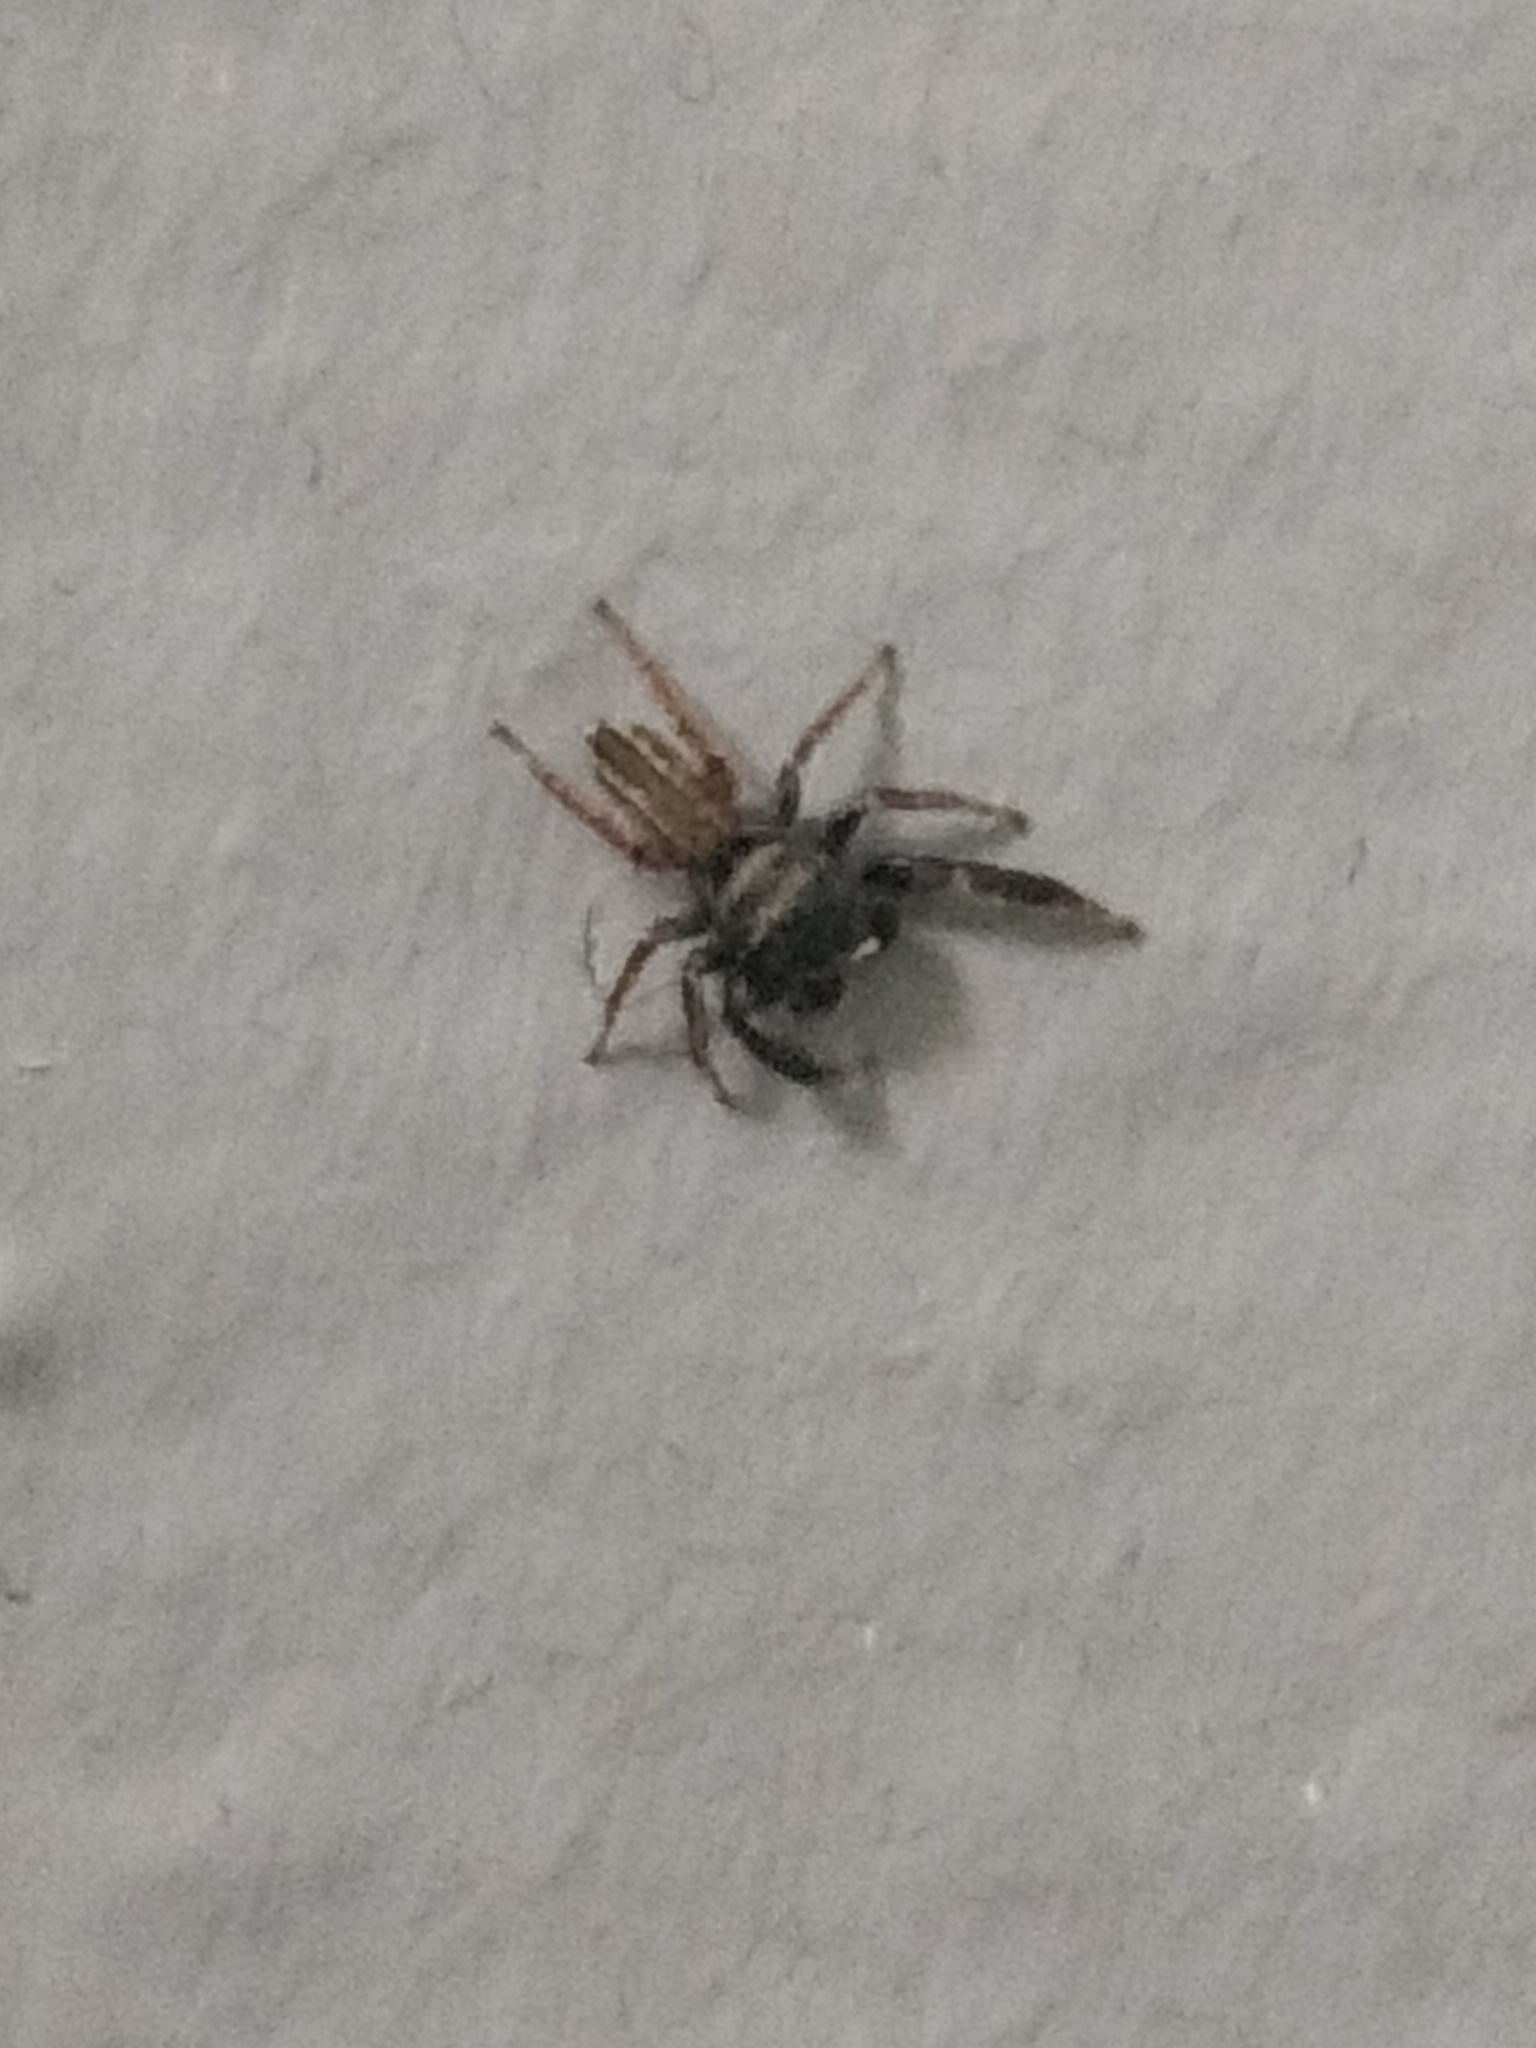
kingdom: Animalia
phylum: Arthropoda
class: Arachnida
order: Araneae
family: Salticidae
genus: Metacyrba
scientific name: Metacyrba taeniola
